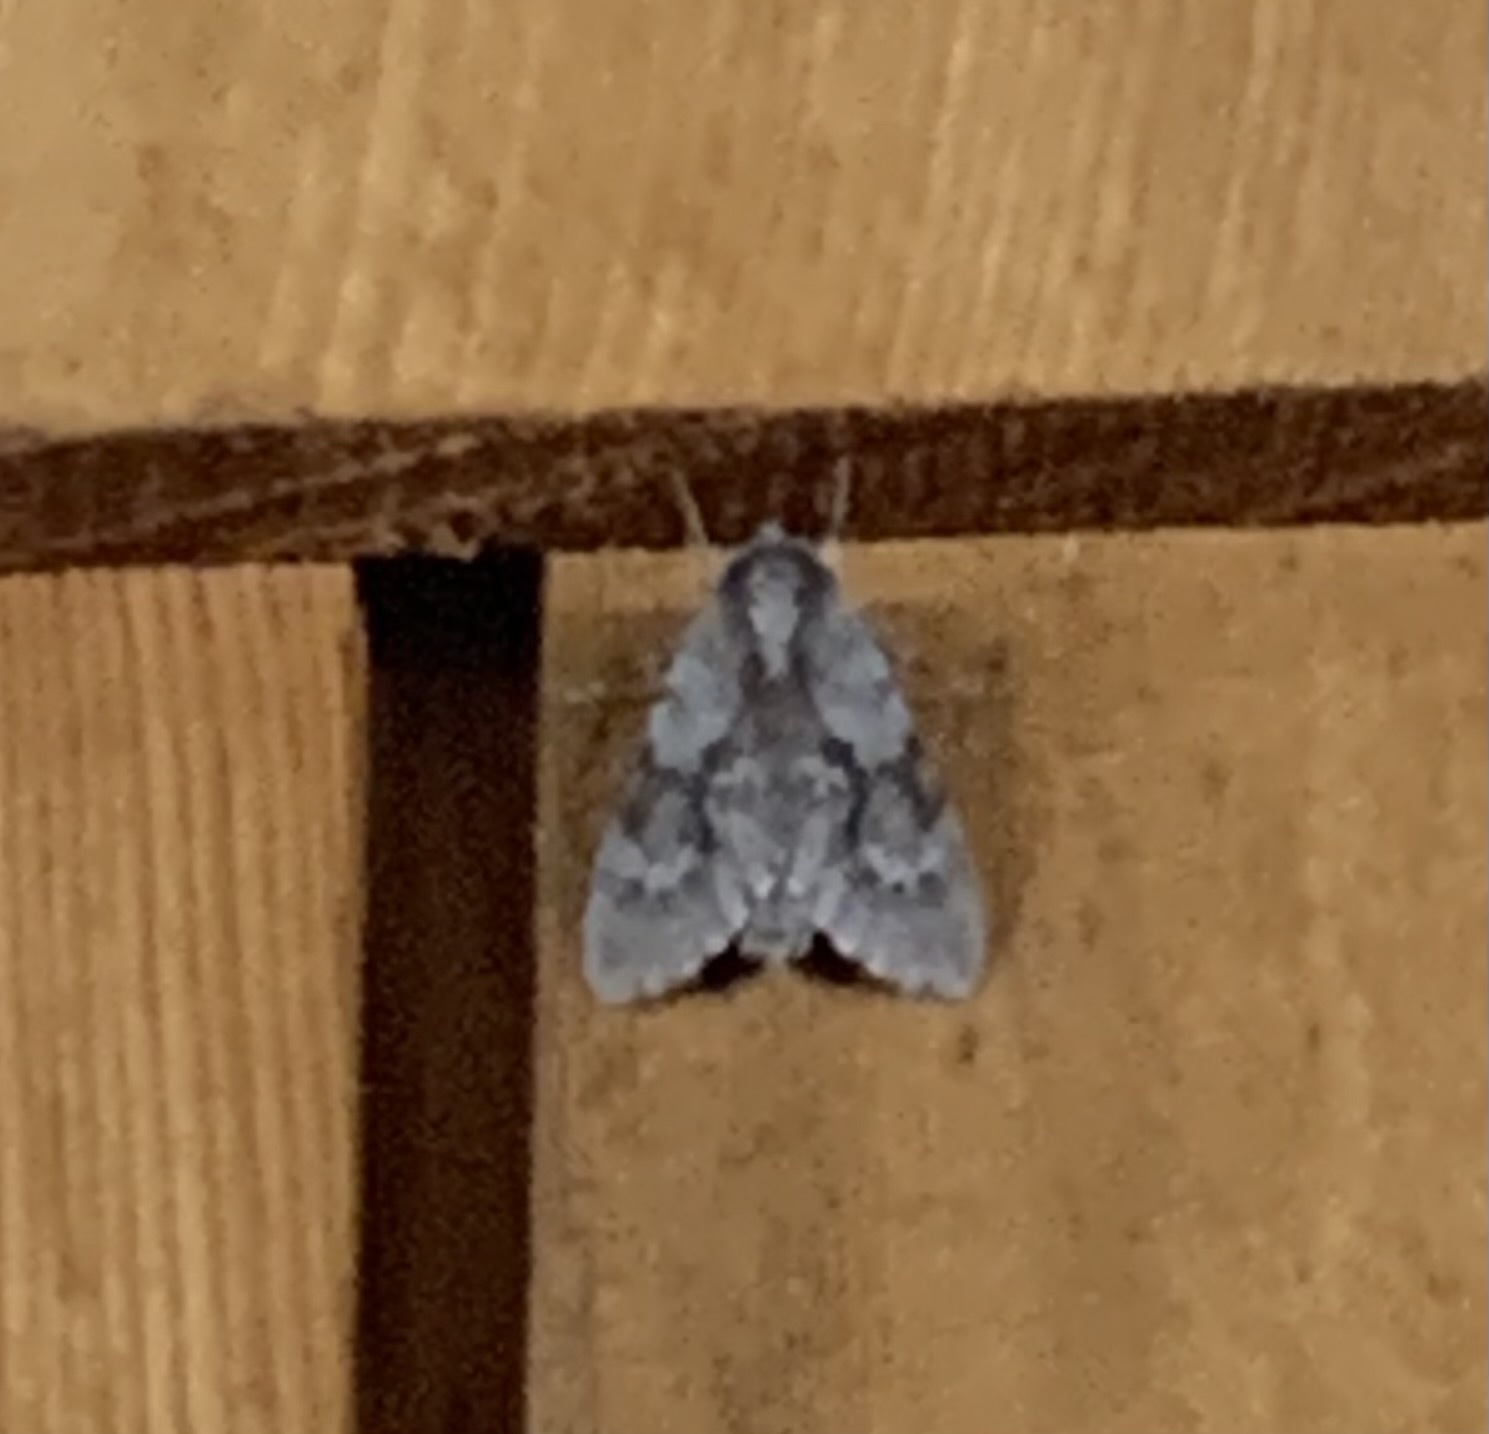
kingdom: Animalia
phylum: Arthropoda
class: Insecta
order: Lepidoptera
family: Sphingidae
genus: Lapara
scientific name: Lapara coniferarum
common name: Southern pine sphinx
